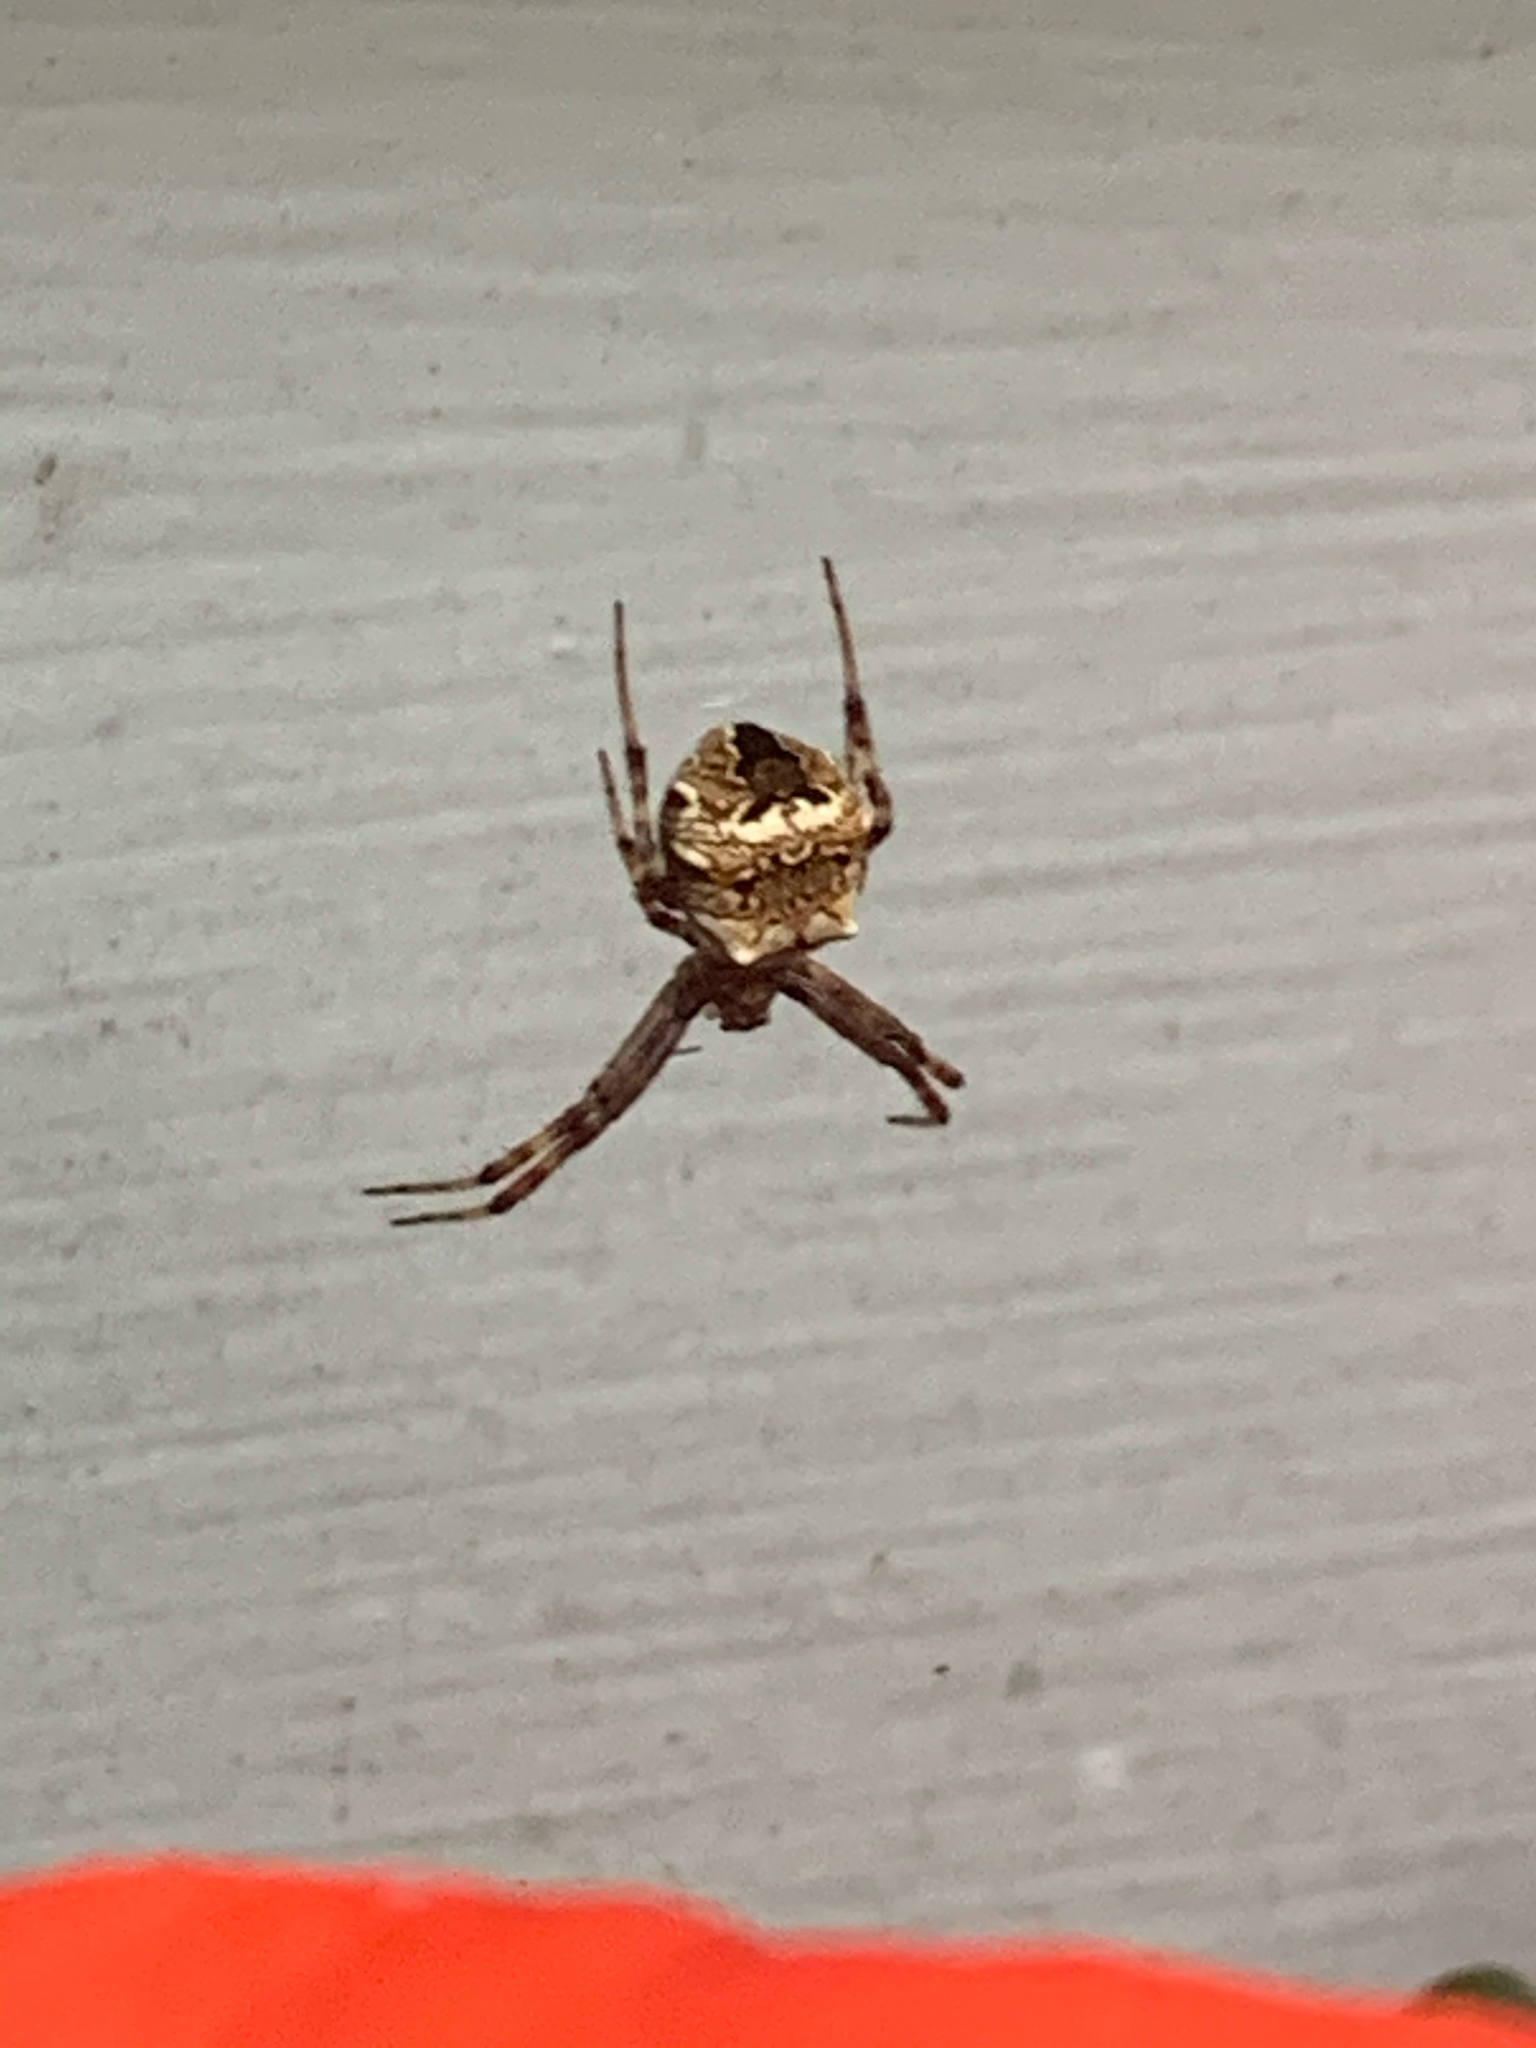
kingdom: Animalia
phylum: Arthropoda
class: Arachnida
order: Araneae
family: Araneidae
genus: Gea
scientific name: Gea heptagon
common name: Orb weavers
